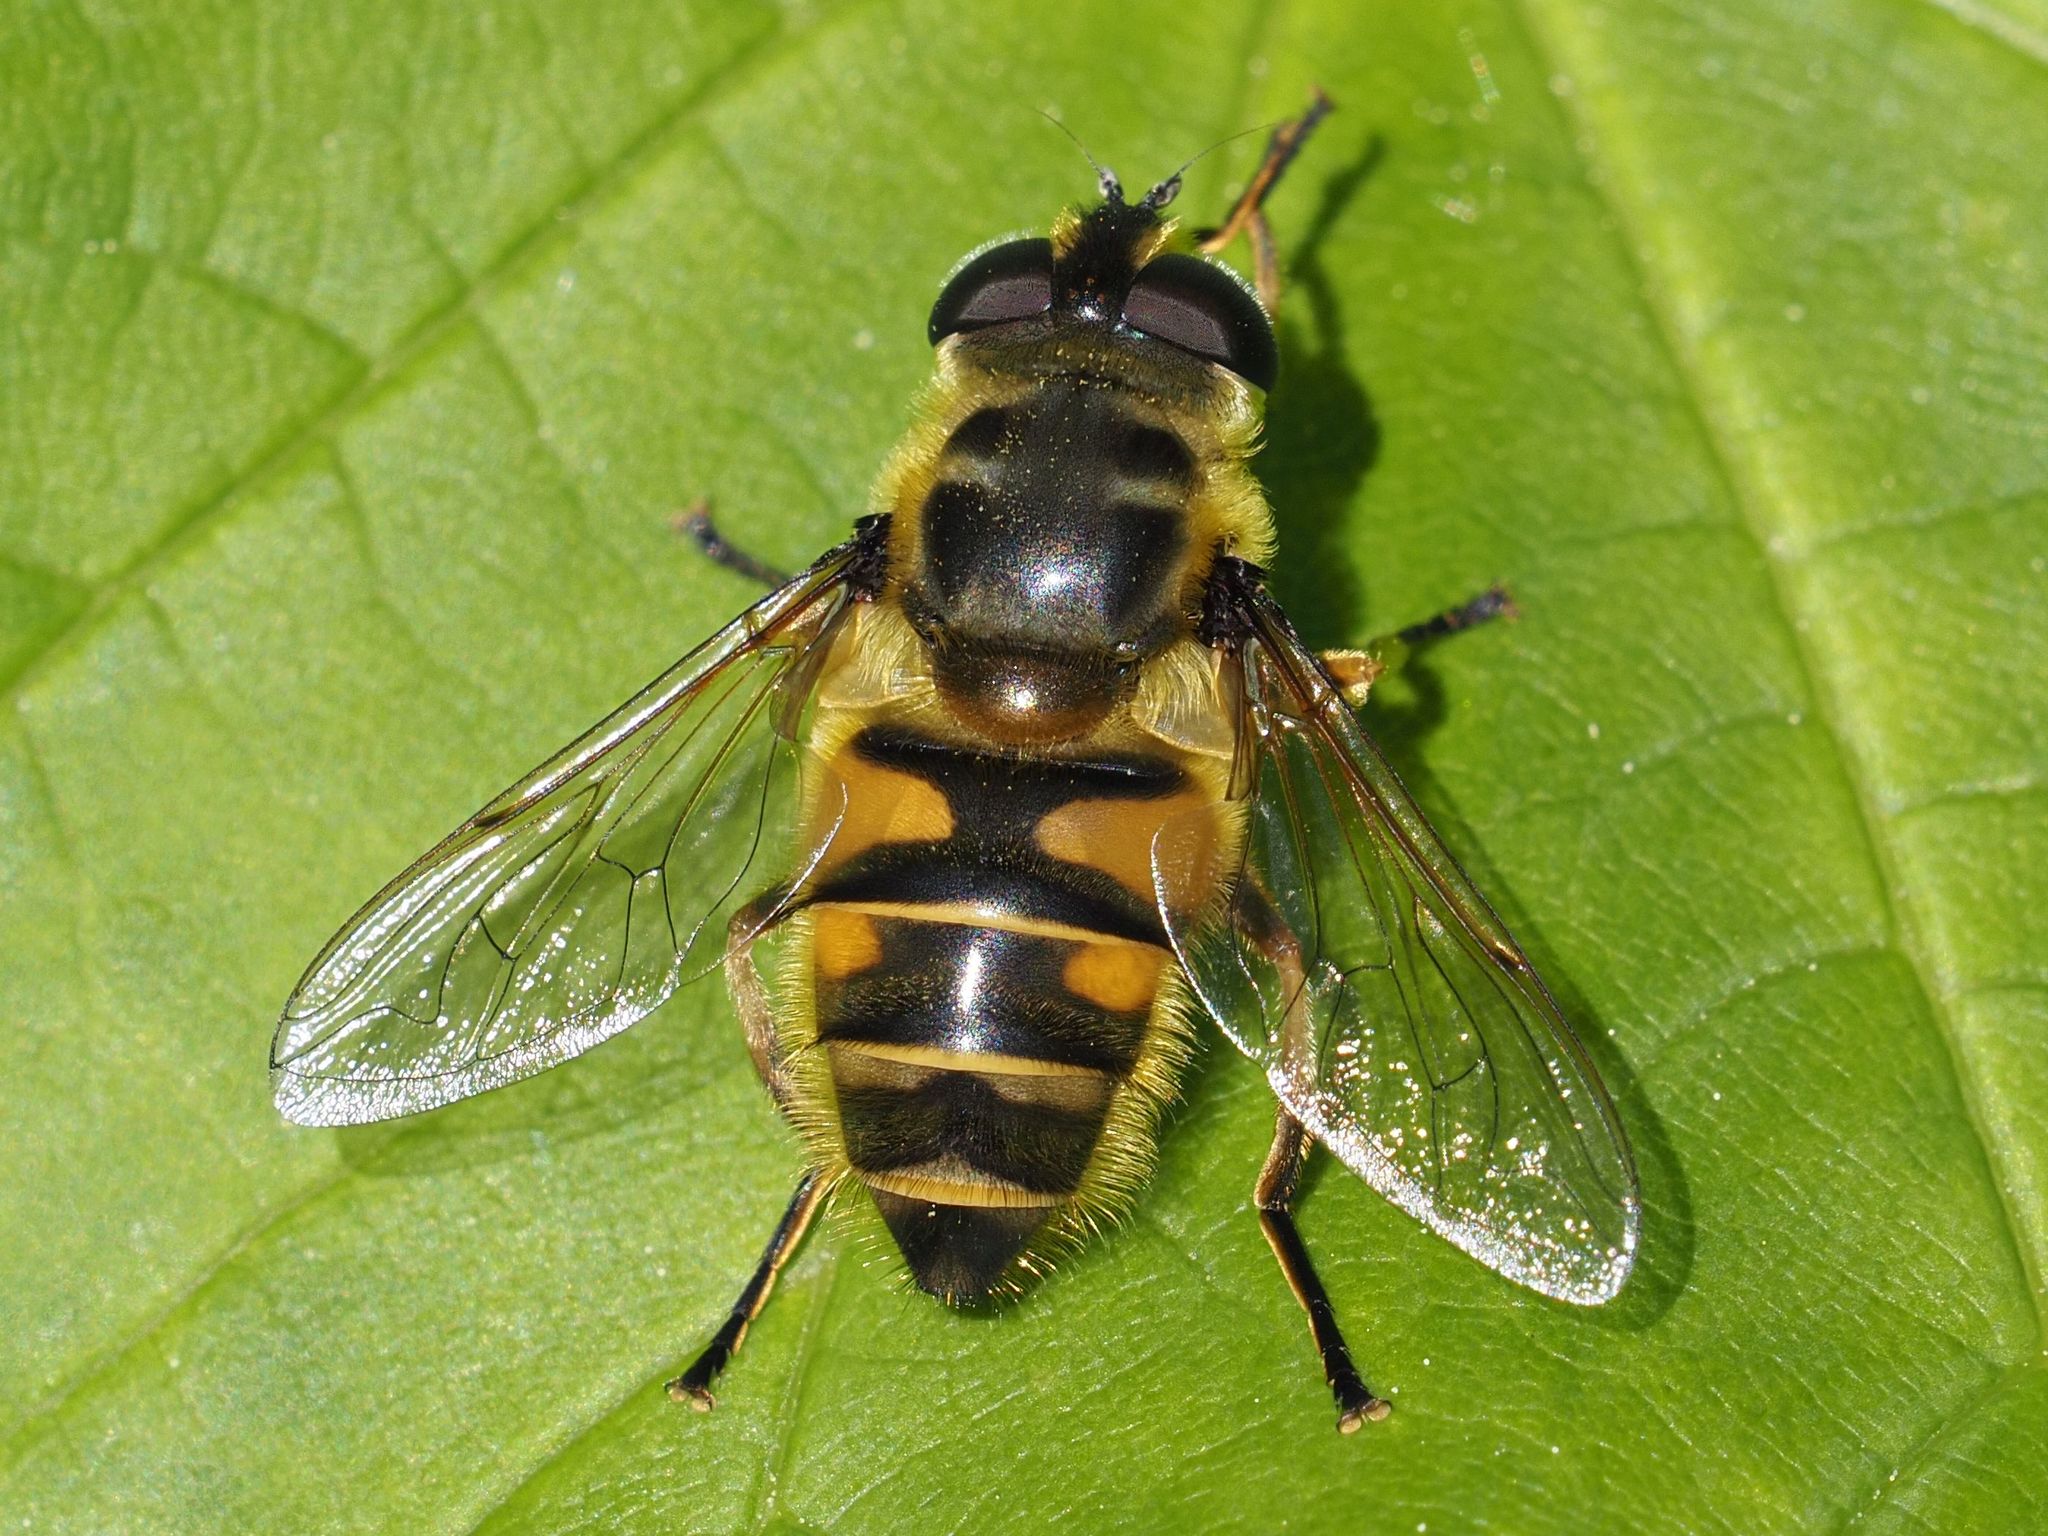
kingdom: Animalia
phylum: Arthropoda
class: Insecta
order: Diptera
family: Syrphidae
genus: Myathropa
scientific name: Myathropa florea
